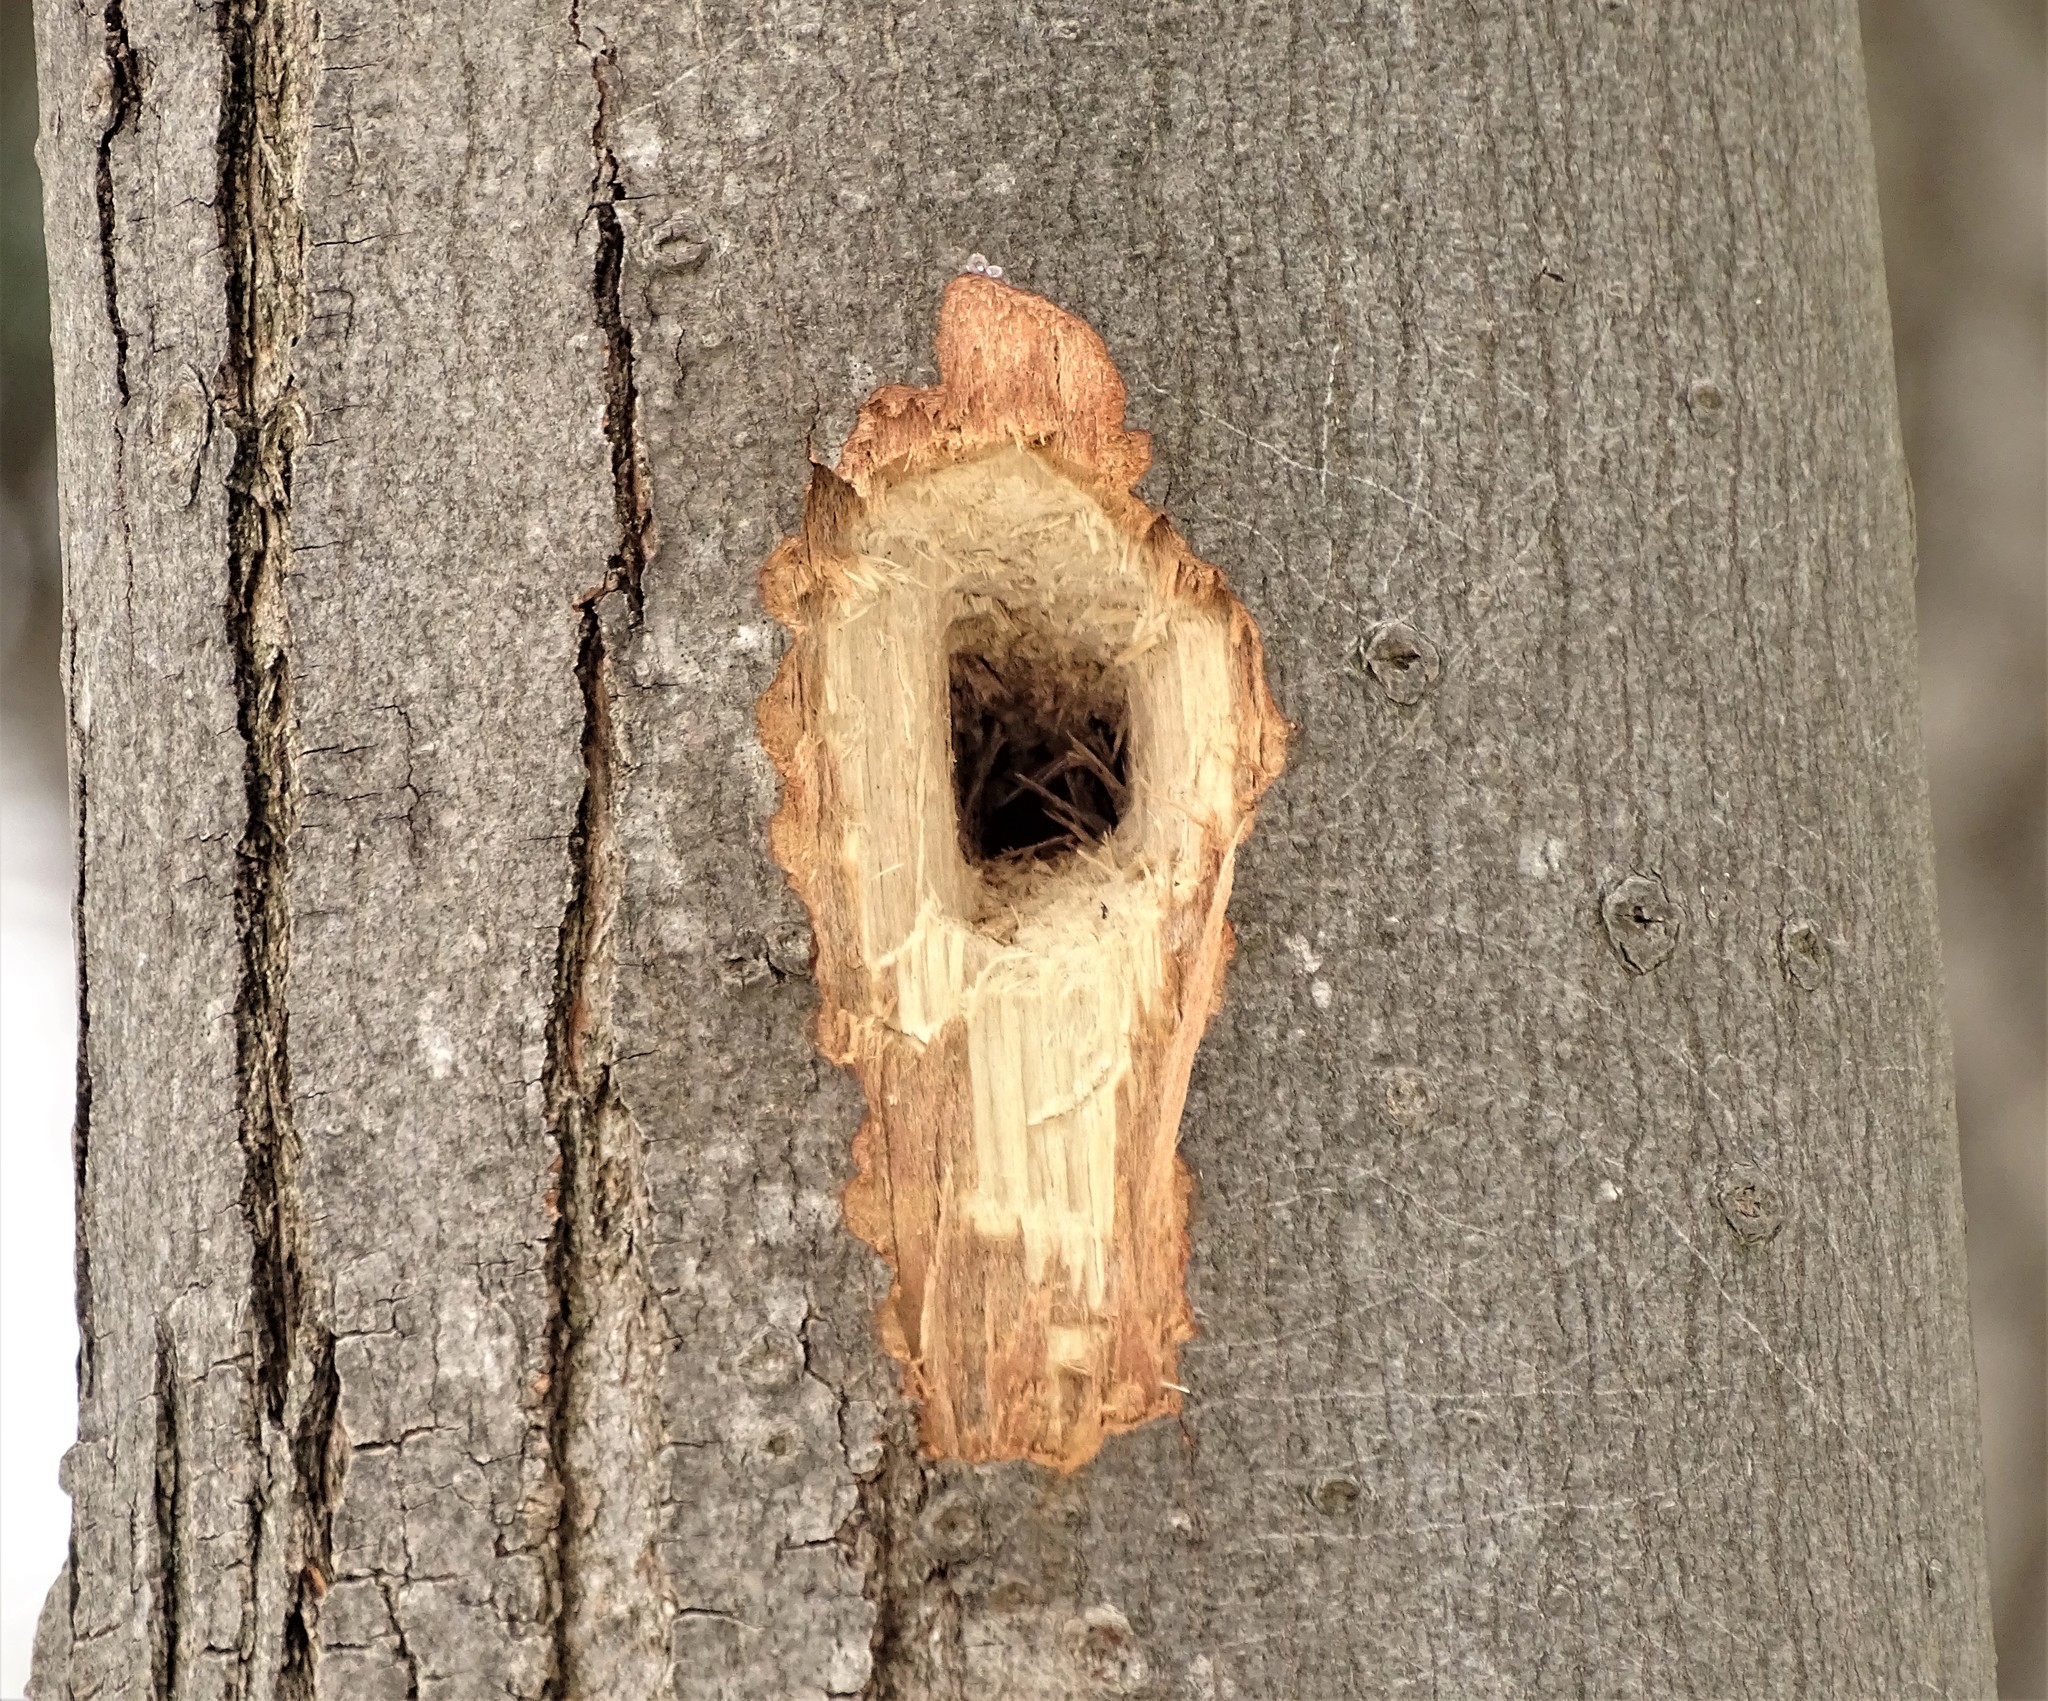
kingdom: Animalia
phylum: Chordata
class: Aves
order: Piciformes
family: Picidae
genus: Dryocopus
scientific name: Dryocopus pileatus
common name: Pileated woodpecker
